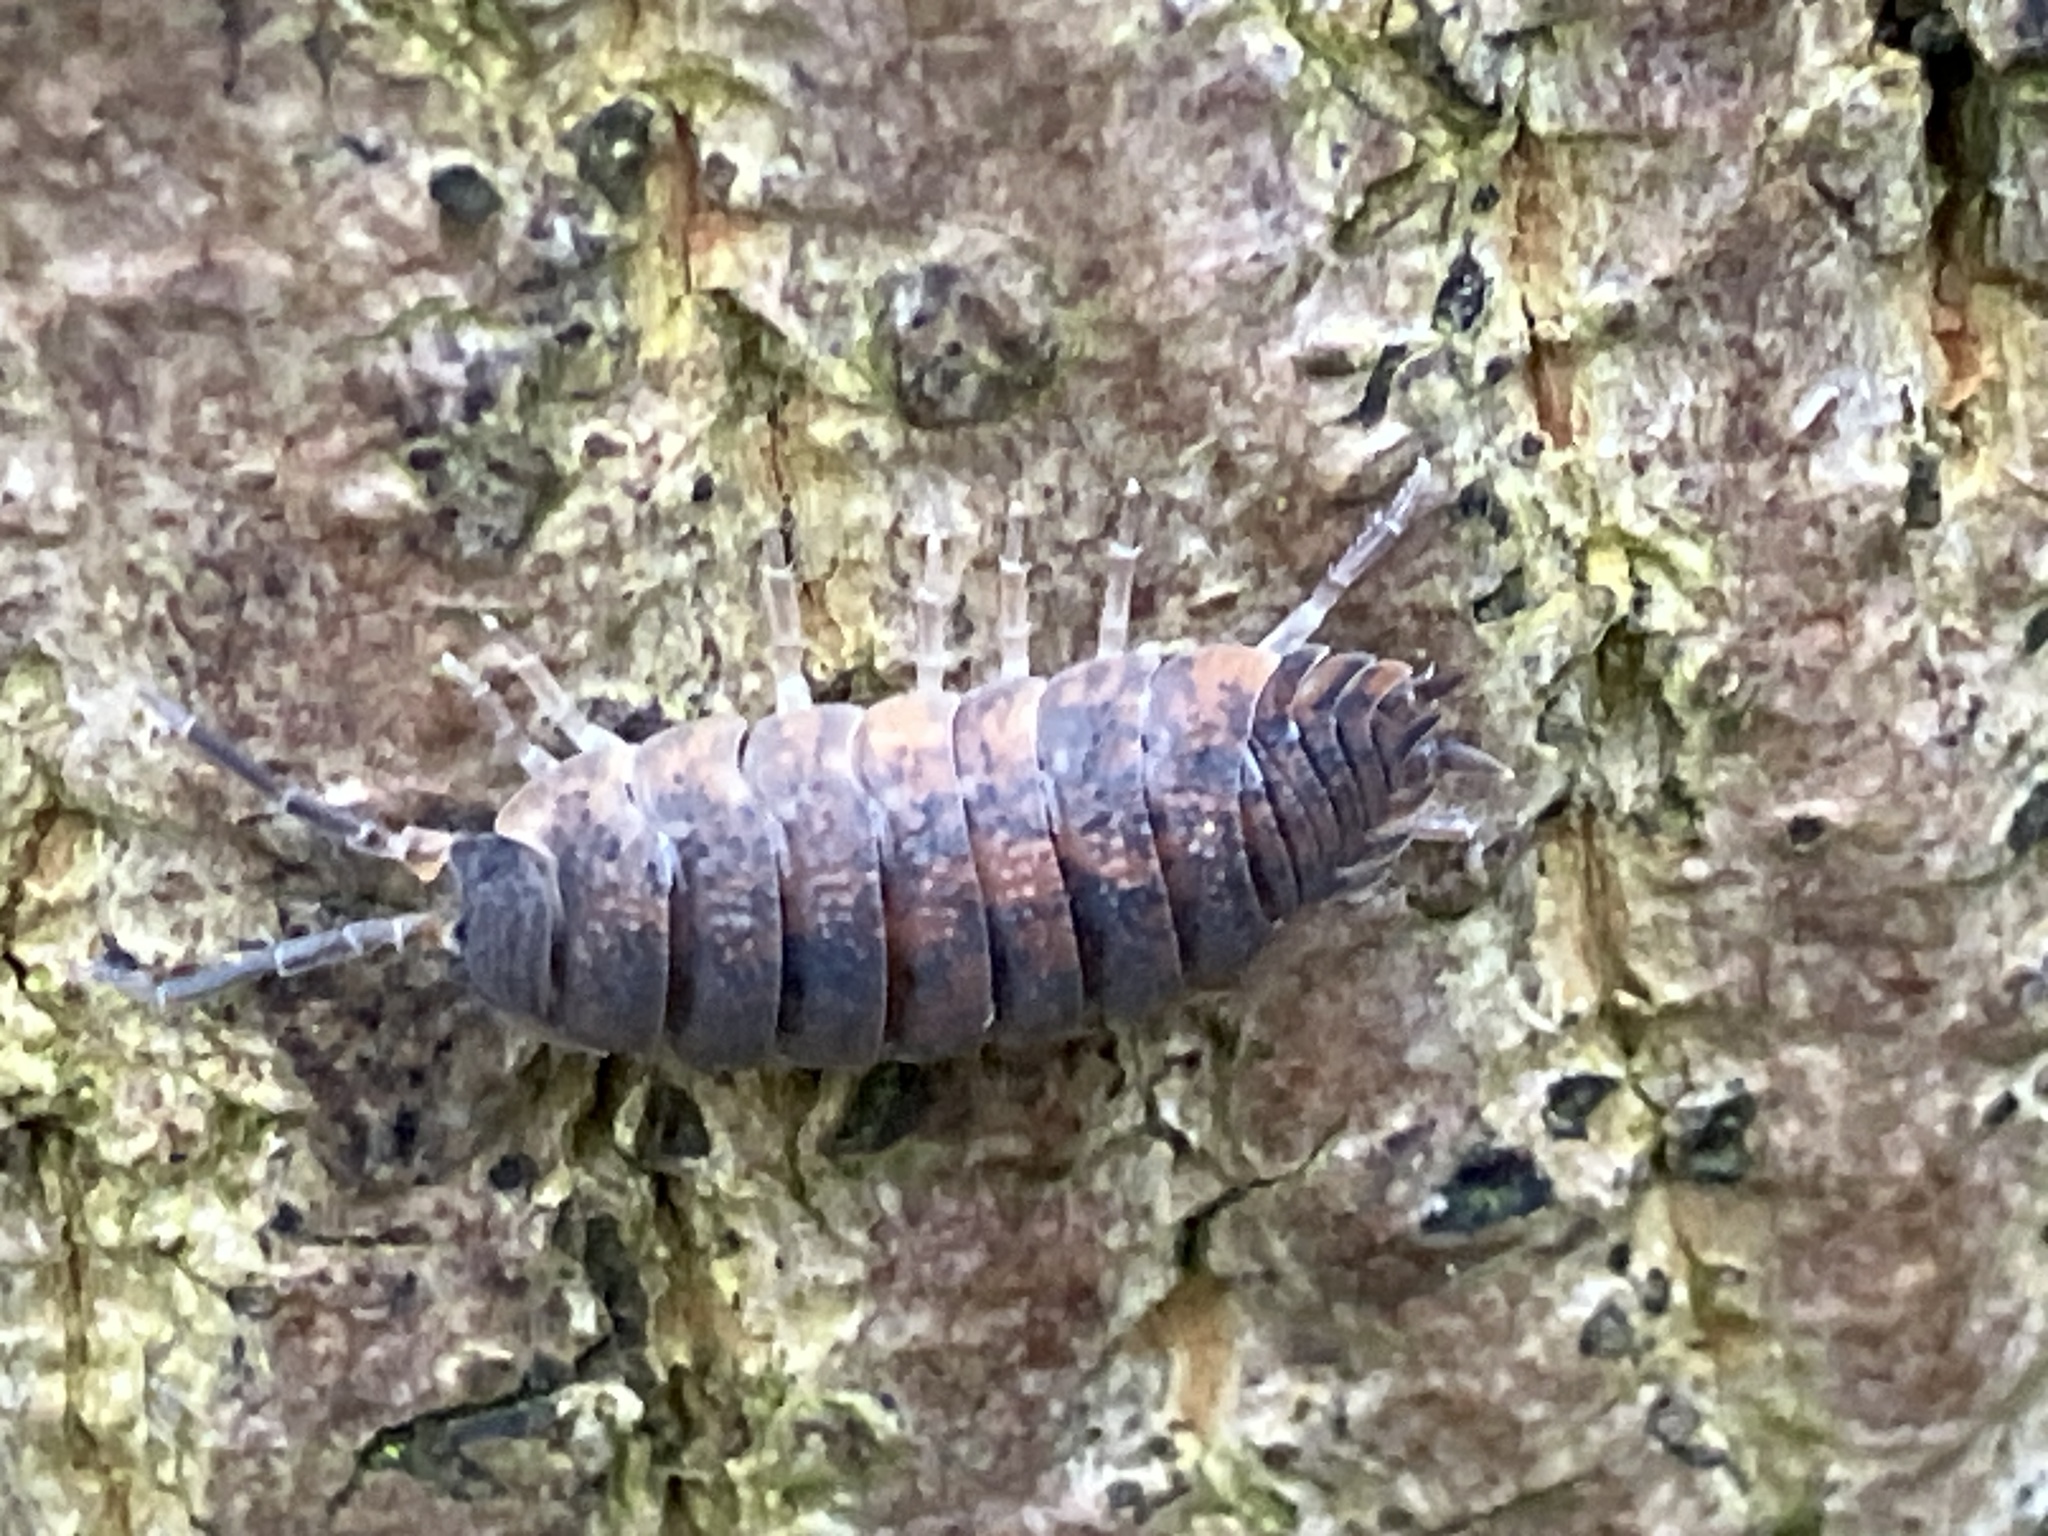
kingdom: Animalia
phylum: Arthropoda
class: Malacostraca
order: Isopoda
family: Porcellionidae
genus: Porcellio
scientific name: Porcellio scaber
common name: Common rough woodlouse
